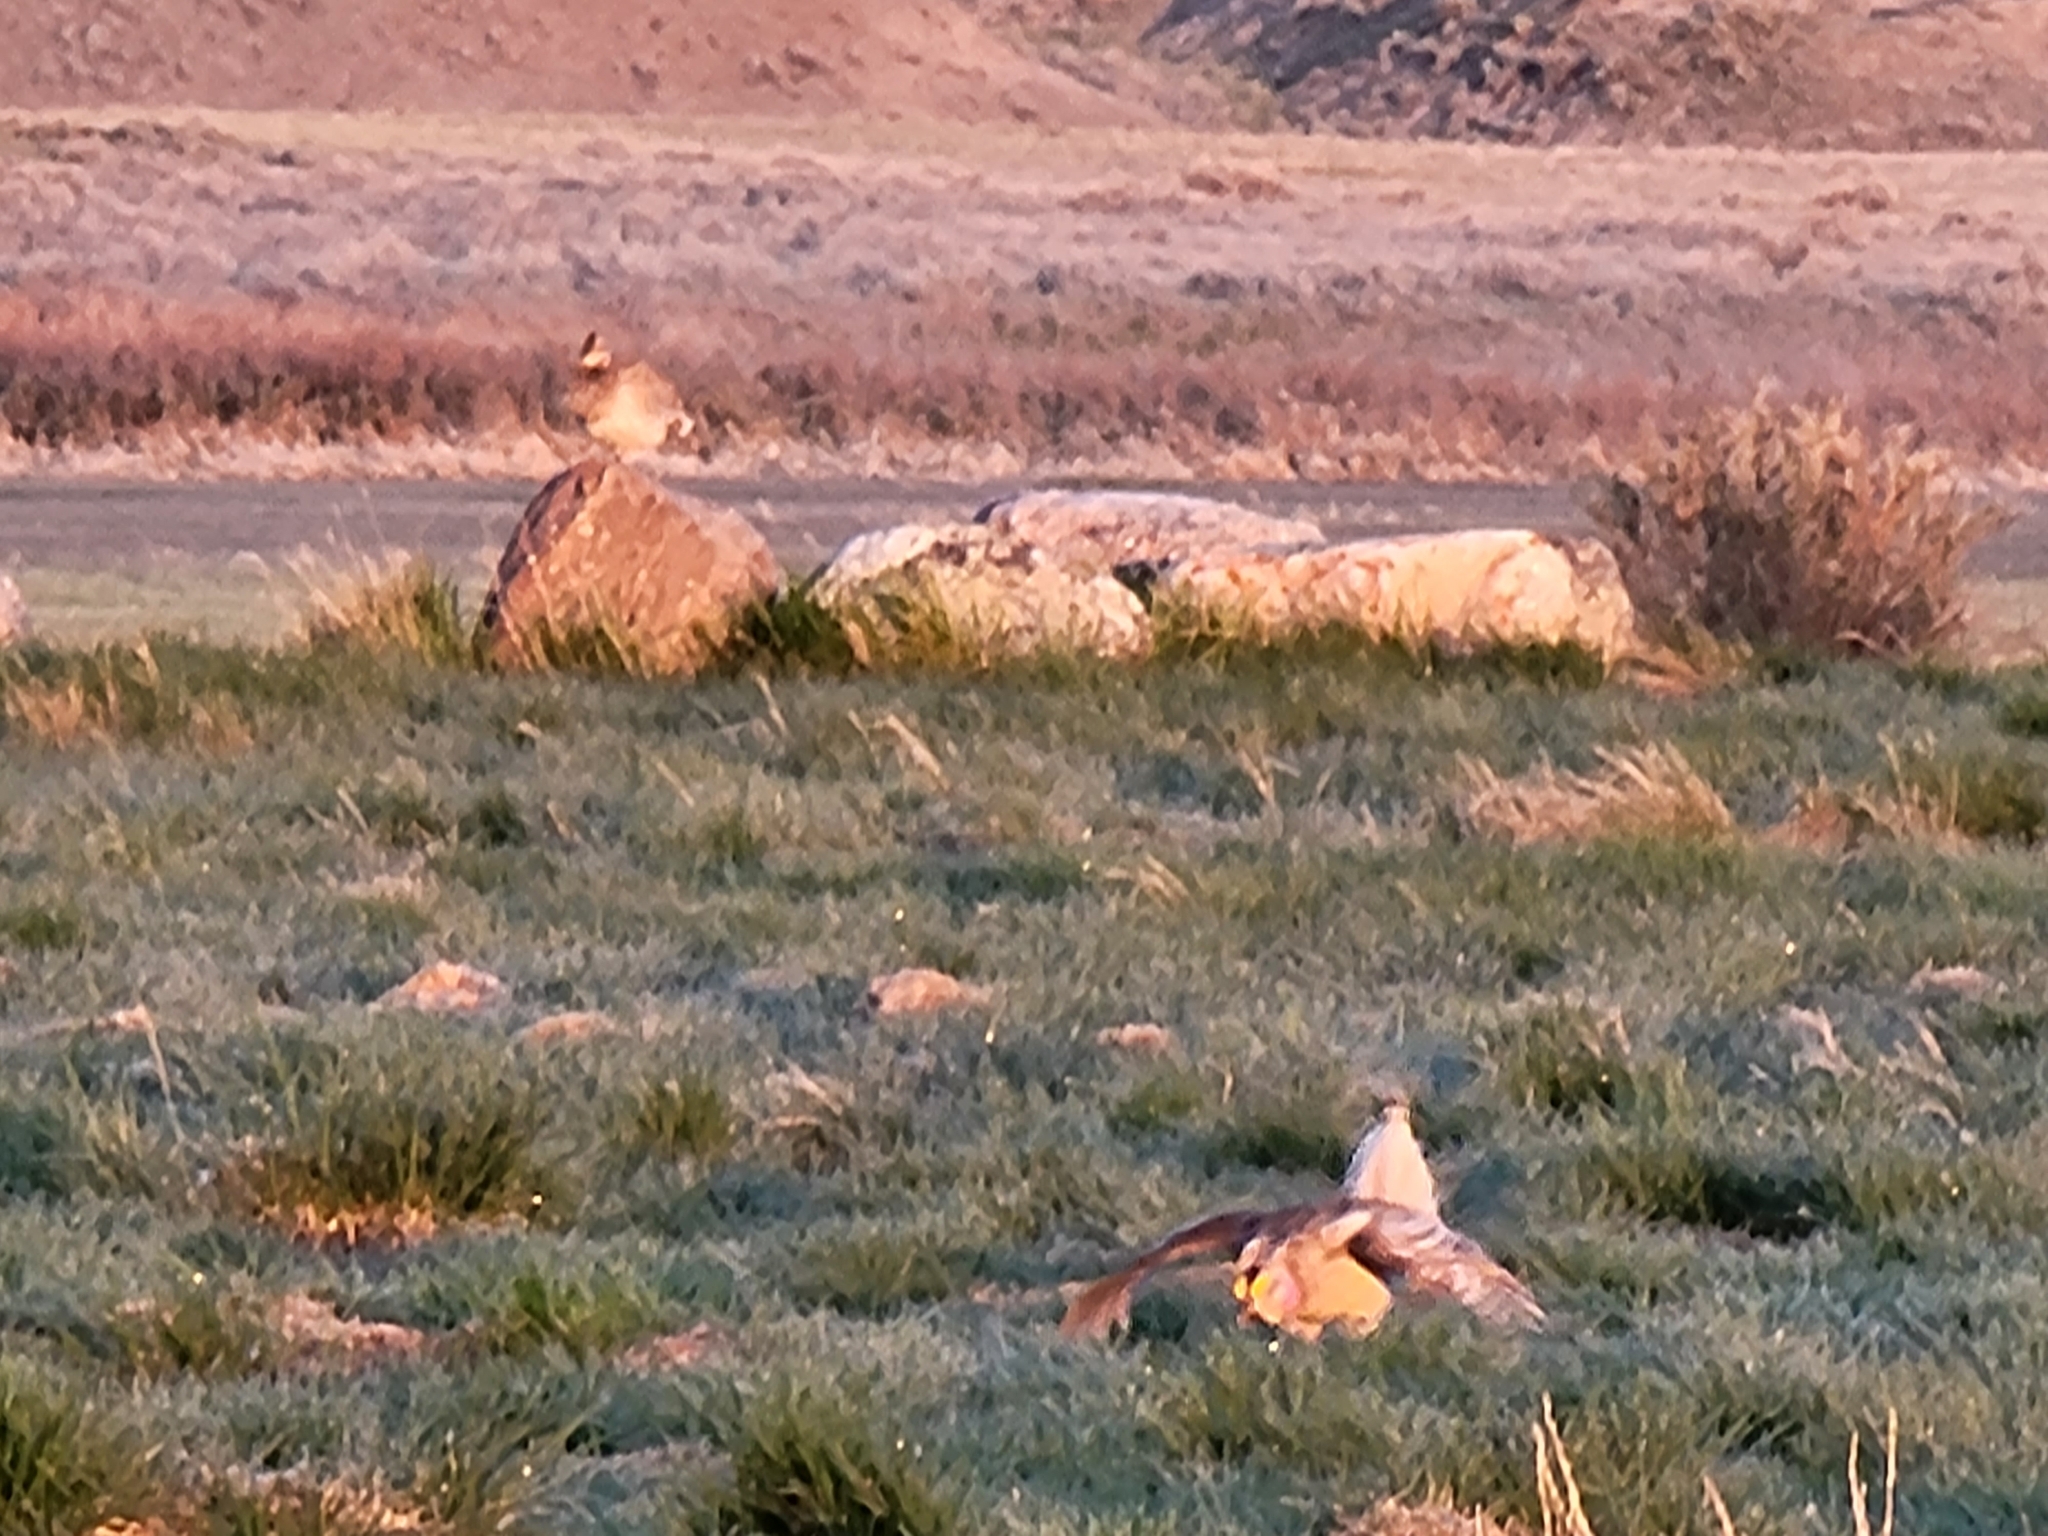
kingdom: Animalia
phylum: Chordata
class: Aves
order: Galliformes
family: Phasianidae
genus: Tympanuchus
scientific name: Tympanuchus phasianellus
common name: Sharp-tailed grouse
